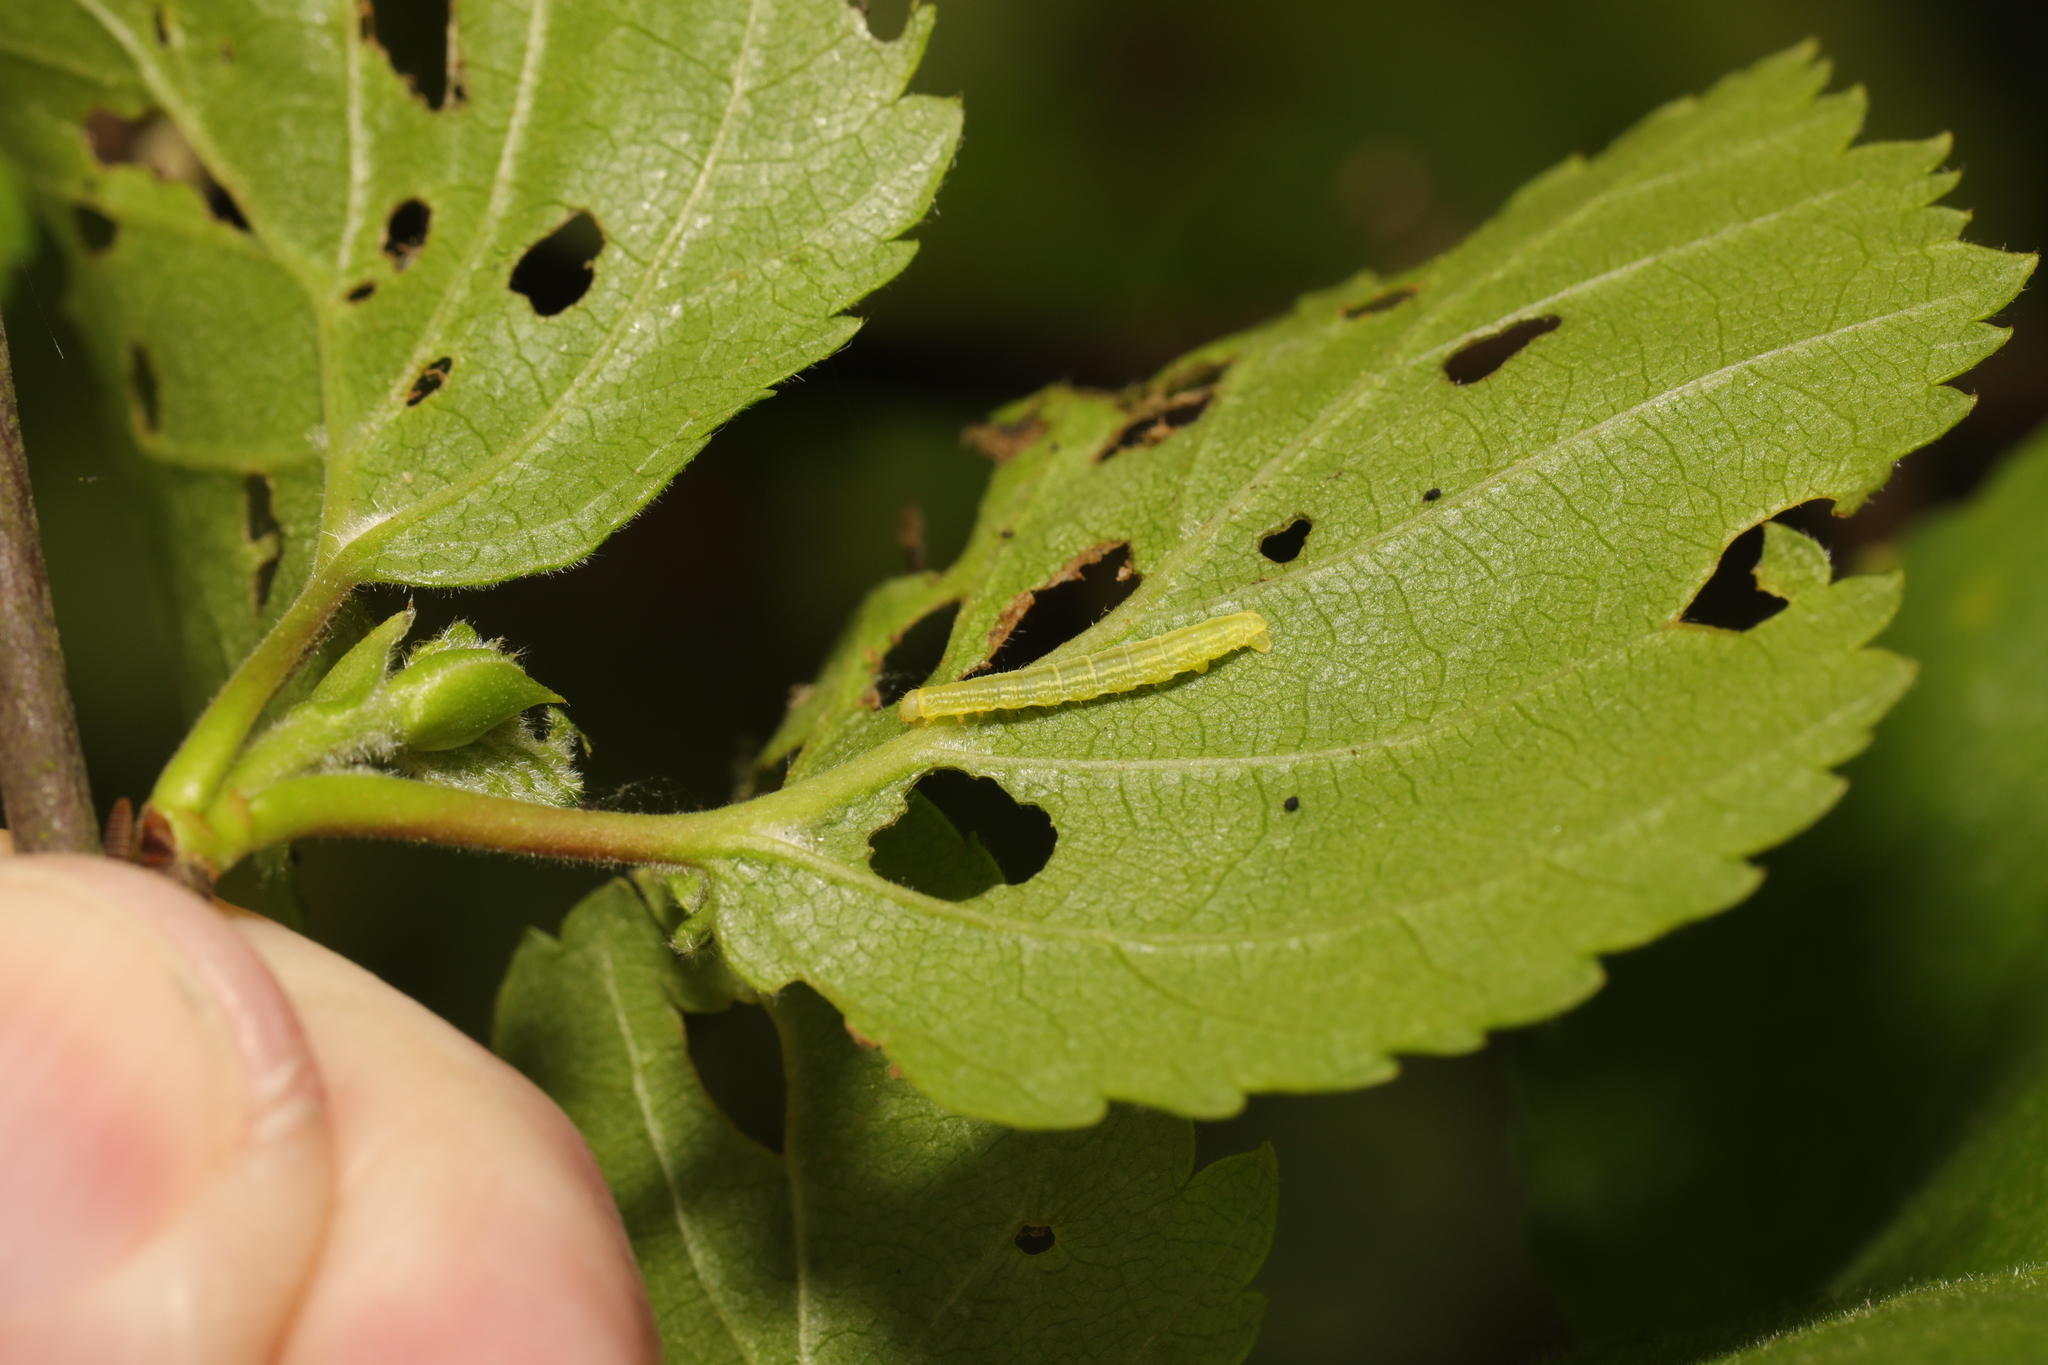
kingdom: Animalia
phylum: Arthropoda
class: Insecta
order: Lepidoptera
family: Geometridae
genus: Operophtera
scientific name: Operophtera brumata
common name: Winter moth
